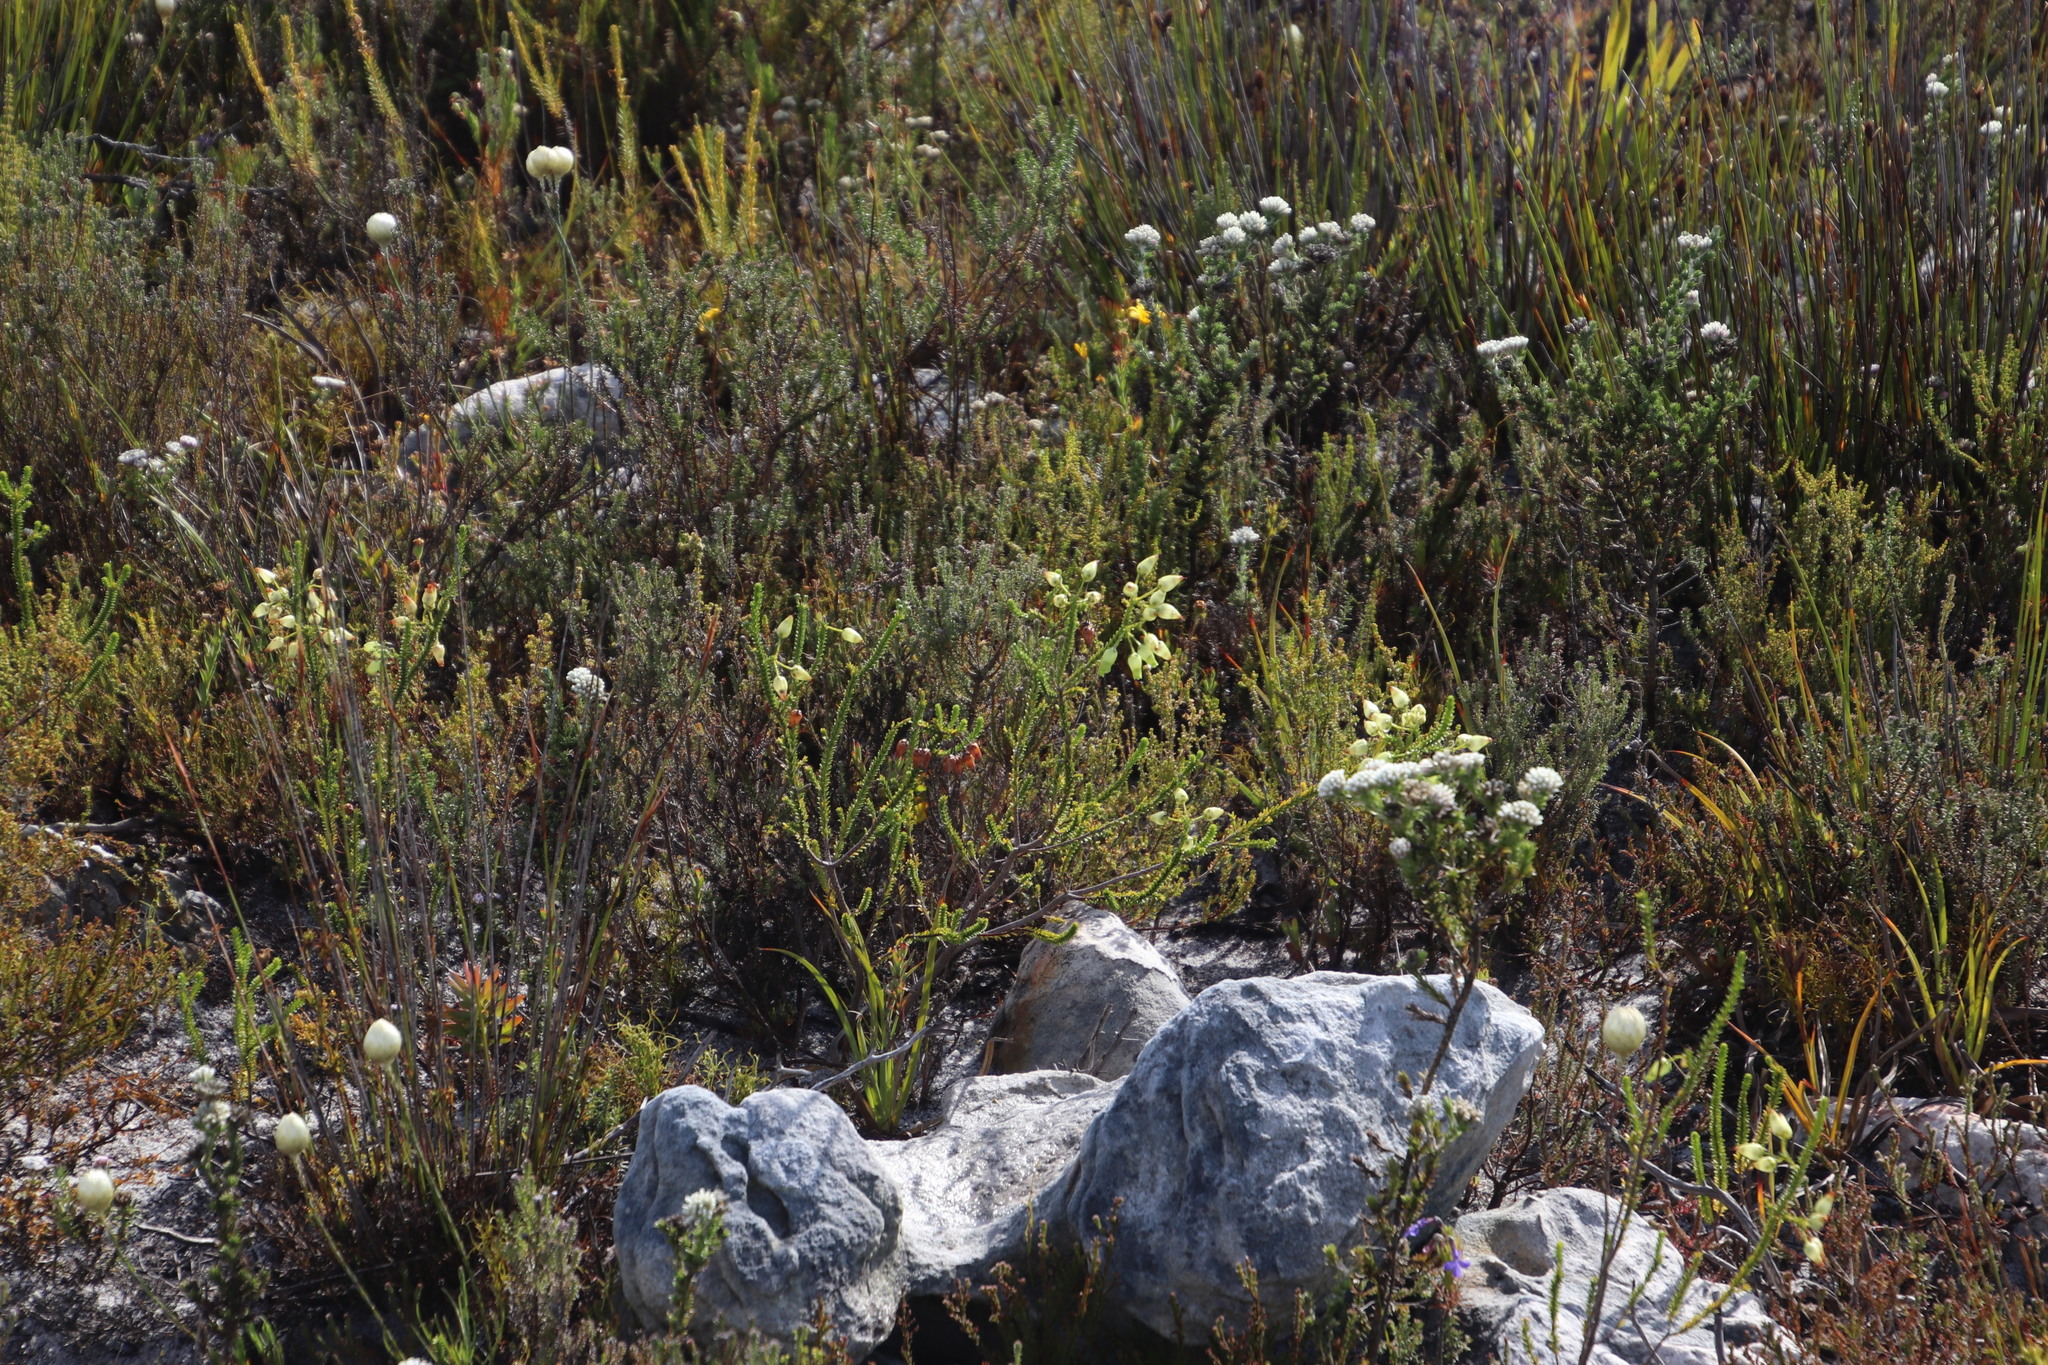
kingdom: Plantae
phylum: Tracheophyta
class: Magnoliopsida
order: Ericales
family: Ericaceae
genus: Erica
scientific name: Erica urna-viridis
